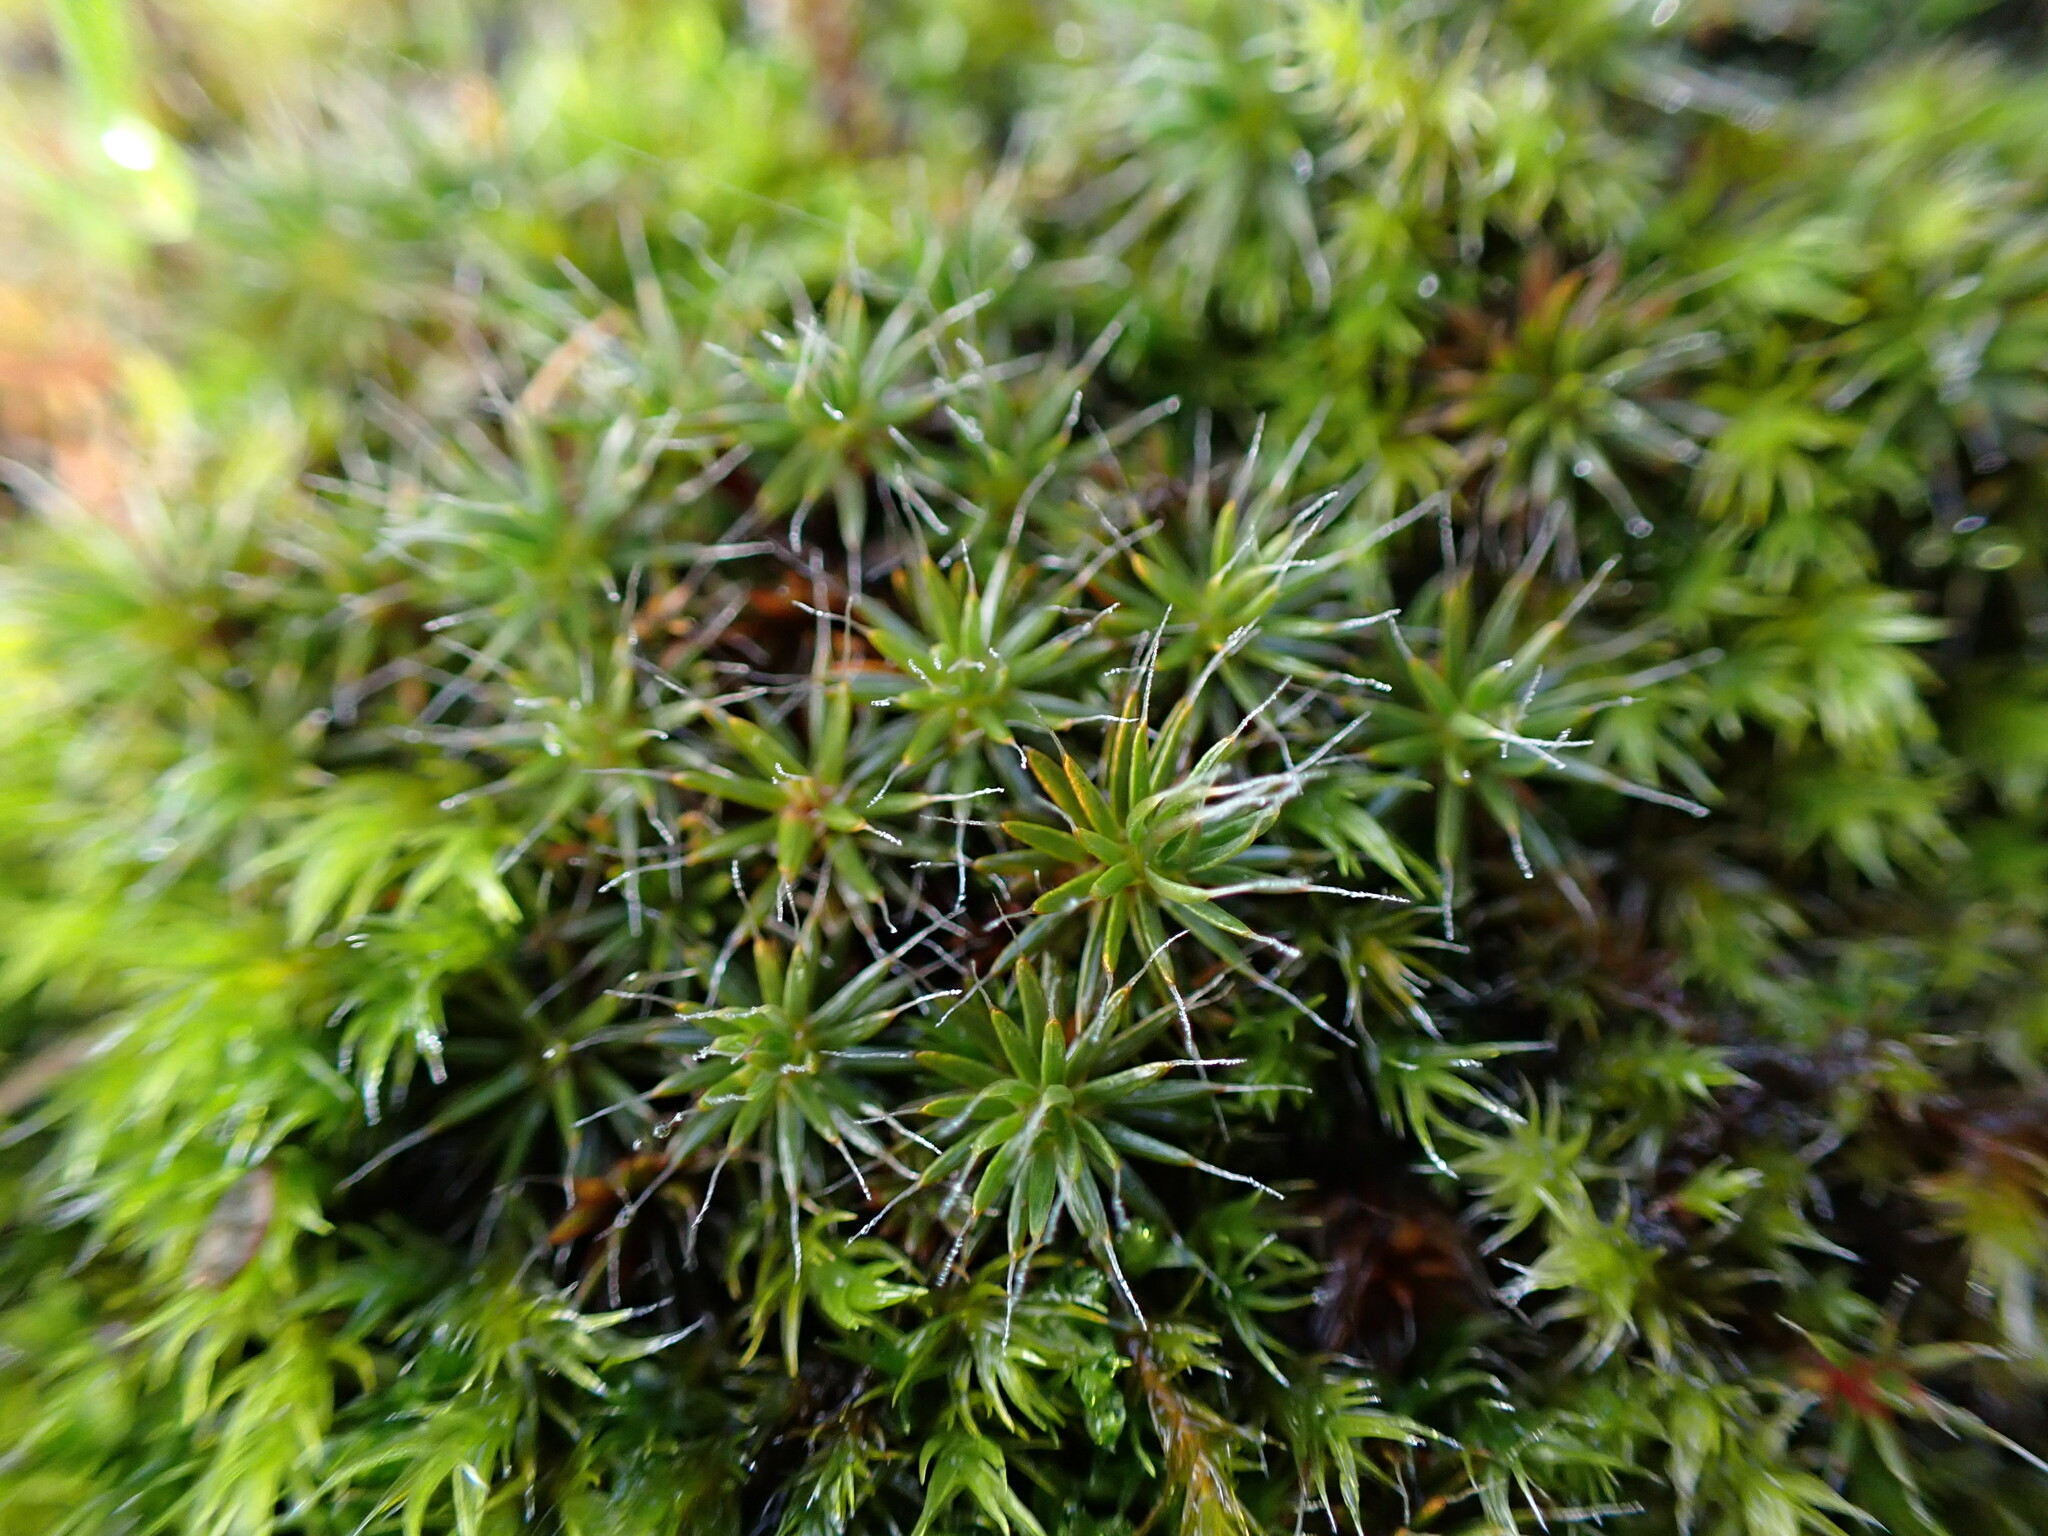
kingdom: Plantae
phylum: Bryophyta
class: Polytrichopsida
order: Polytrichales
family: Polytrichaceae
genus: Polytrichum
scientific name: Polytrichum piliferum
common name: Bristly haircap
